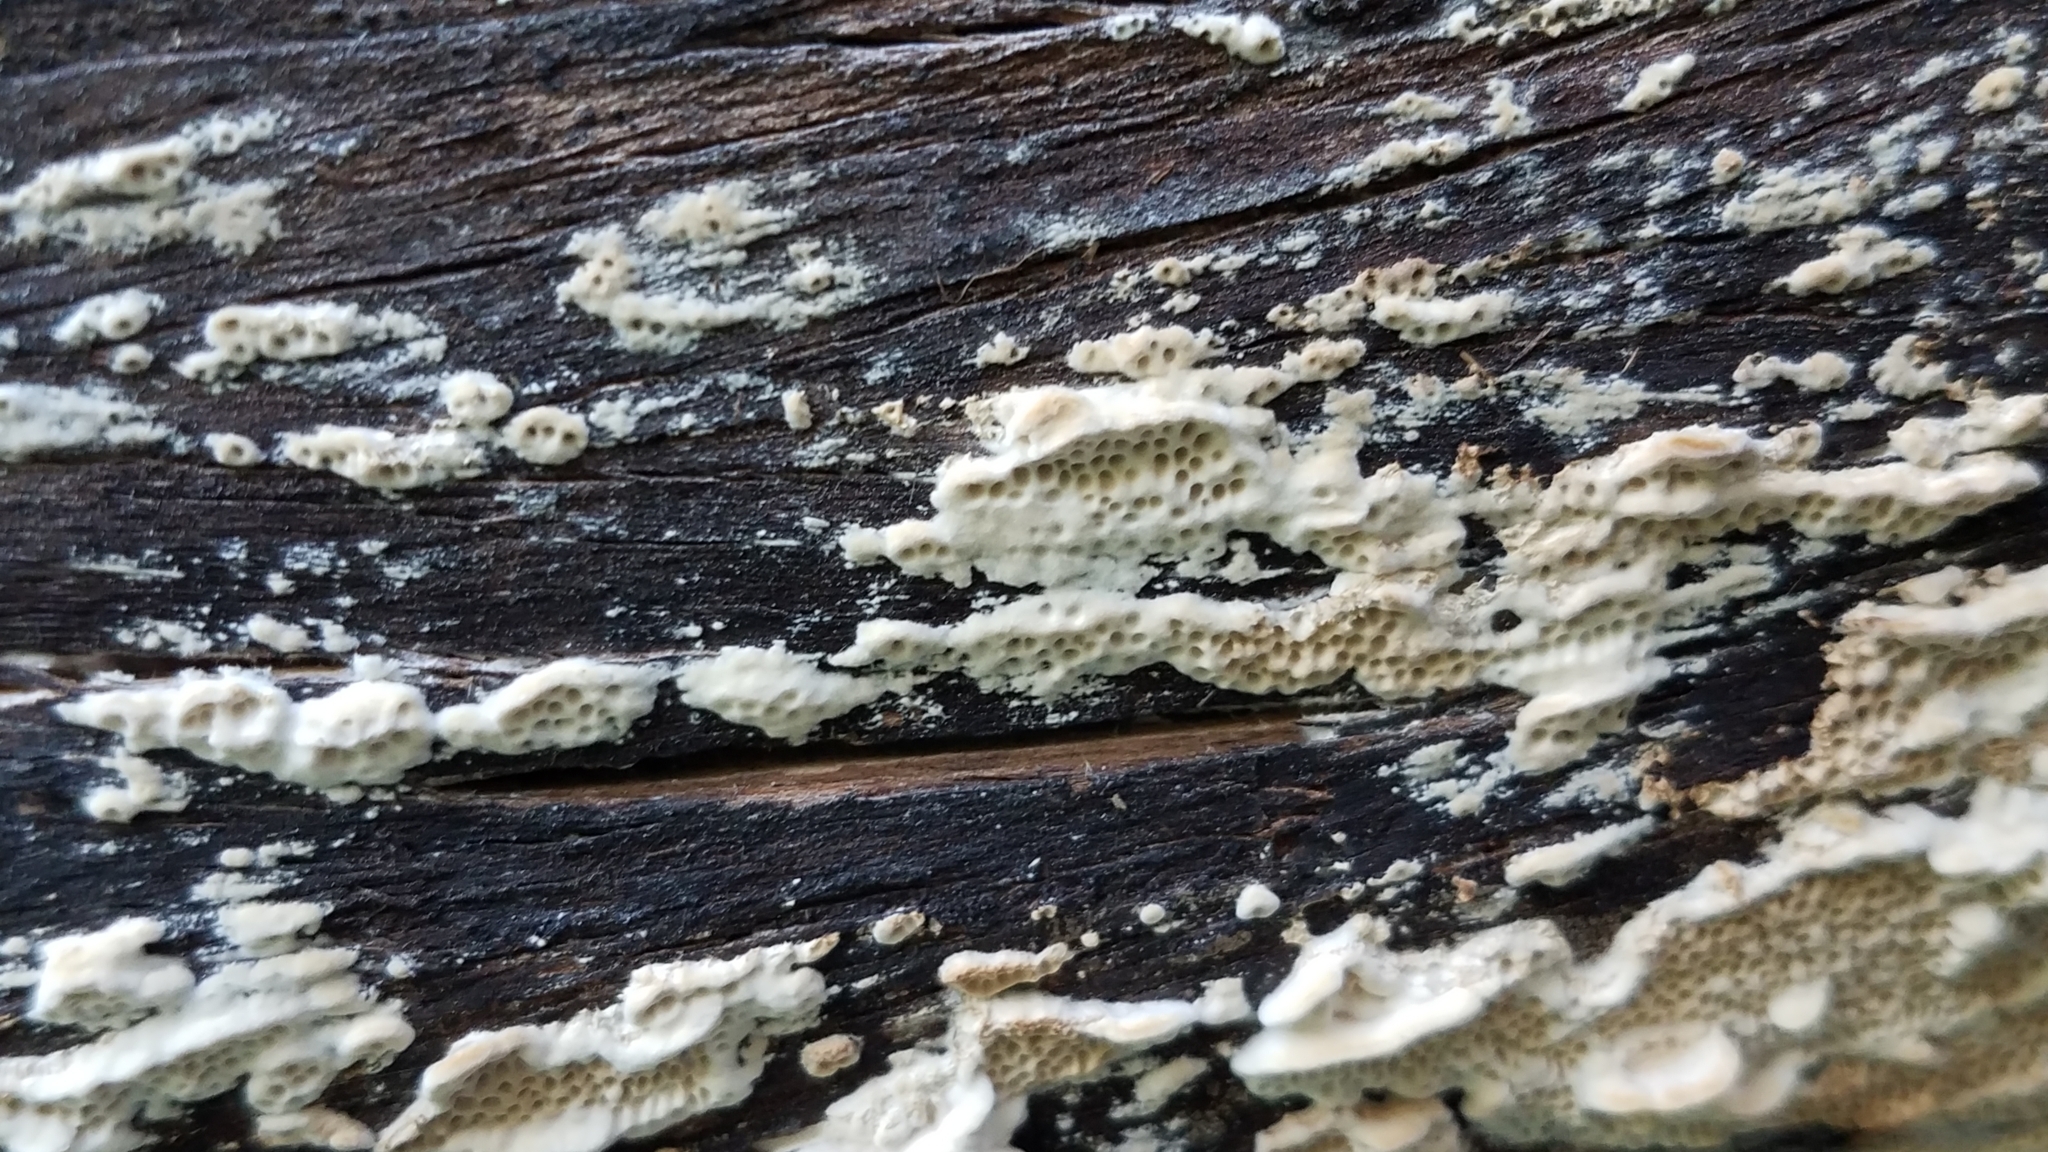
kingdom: Fungi
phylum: Basidiomycota
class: Agaricomycetes
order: Polyporales
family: Irpicaceae
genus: Irpex
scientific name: Irpex lacteus
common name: Milk-white toothed polypore
